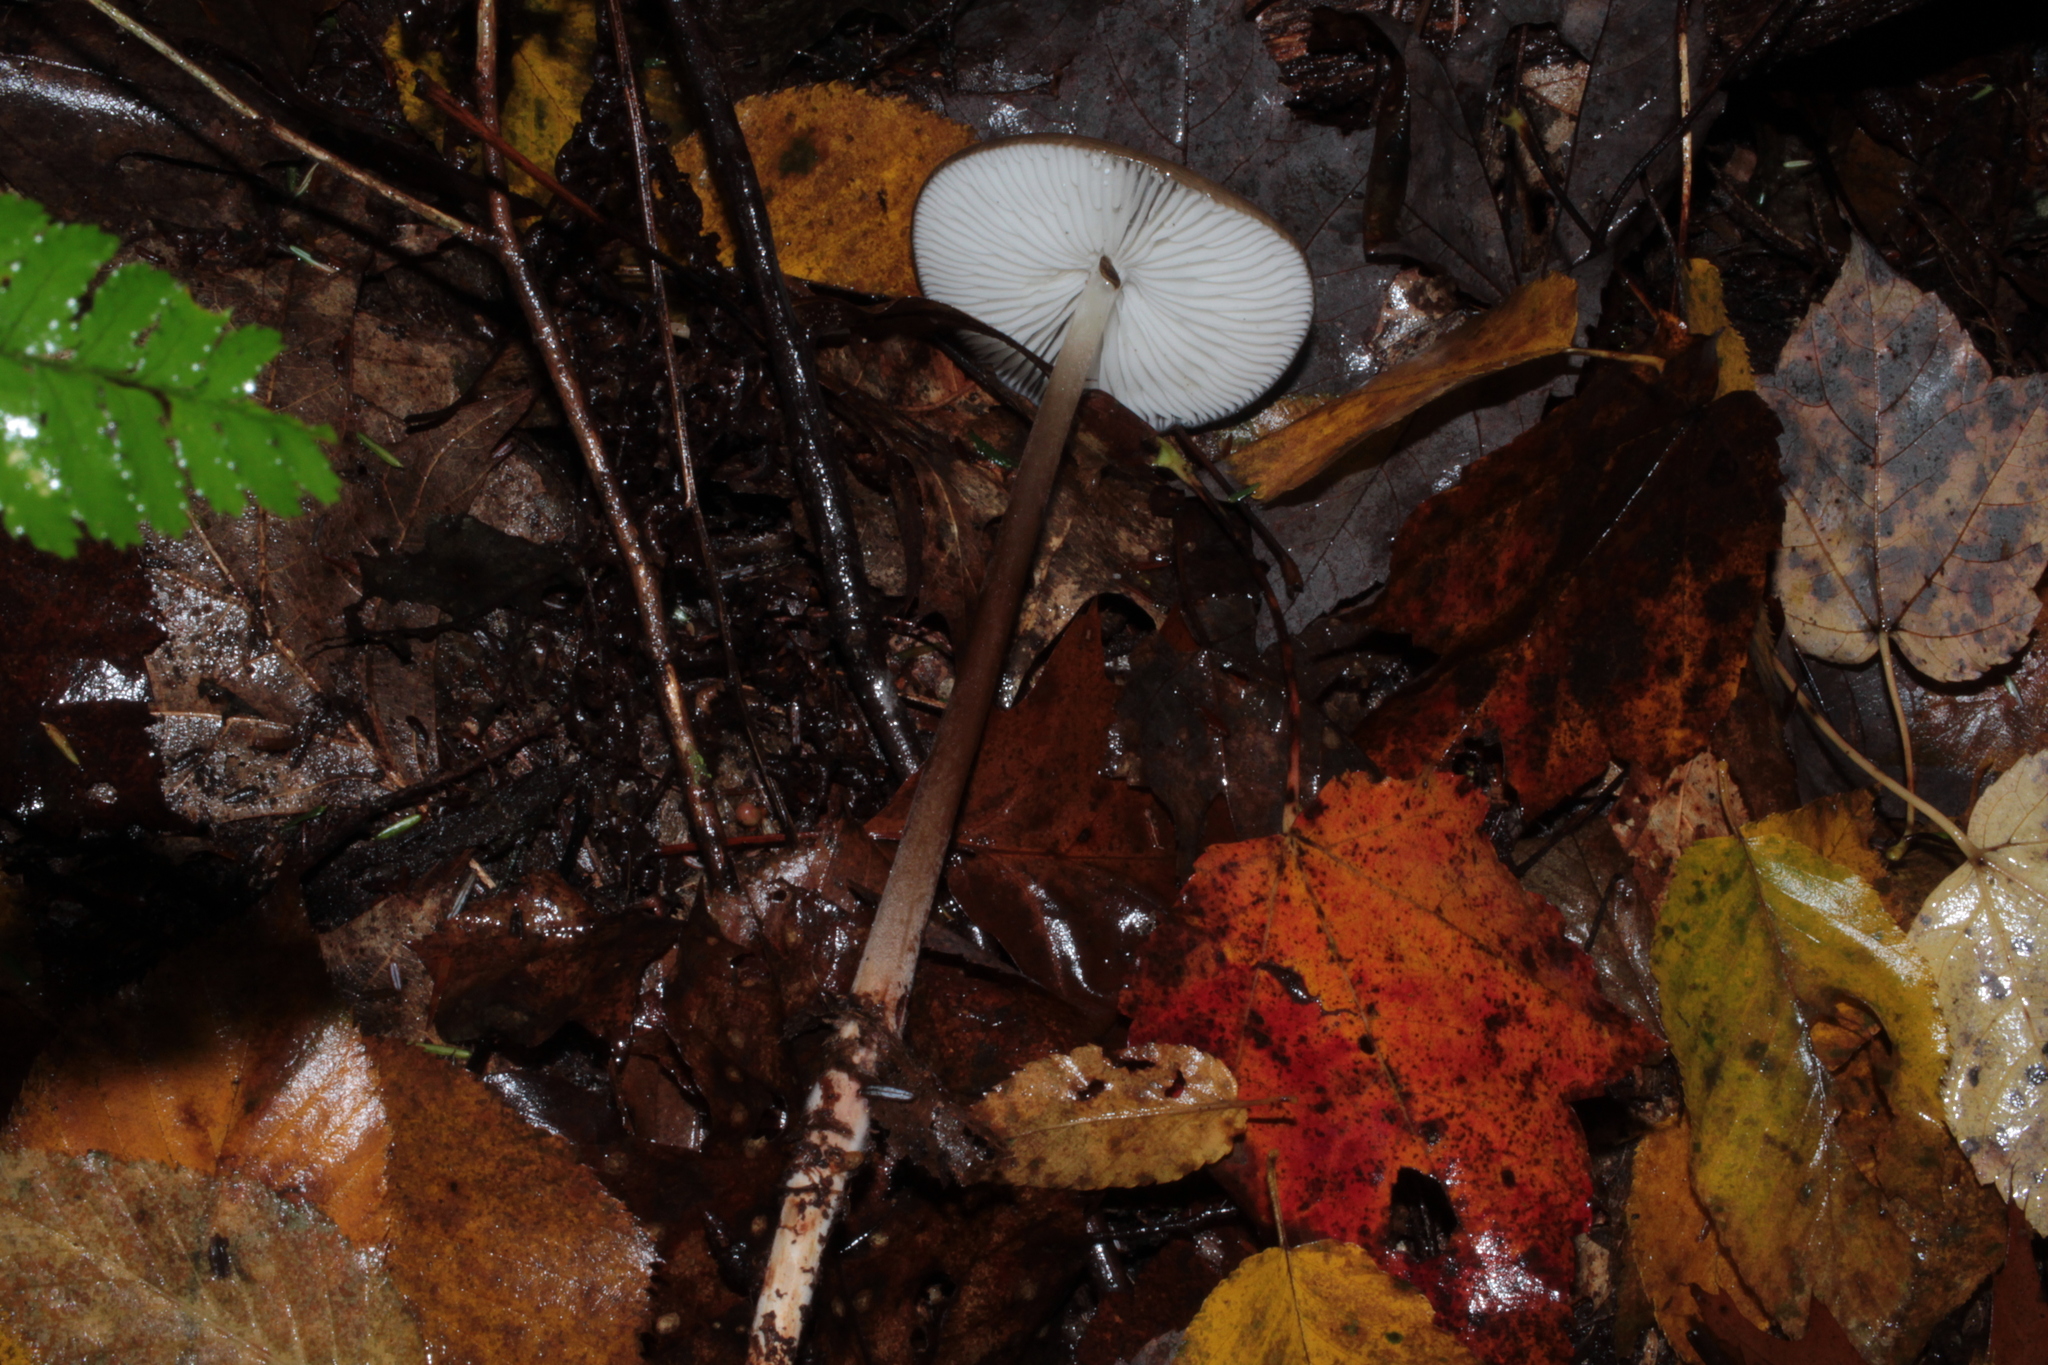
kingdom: Fungi
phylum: Basidiomycota
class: Agaricomycetes
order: Agaricales
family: Physalacriaceae
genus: Hymenopellis
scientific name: Hymenopellis furfuracea
